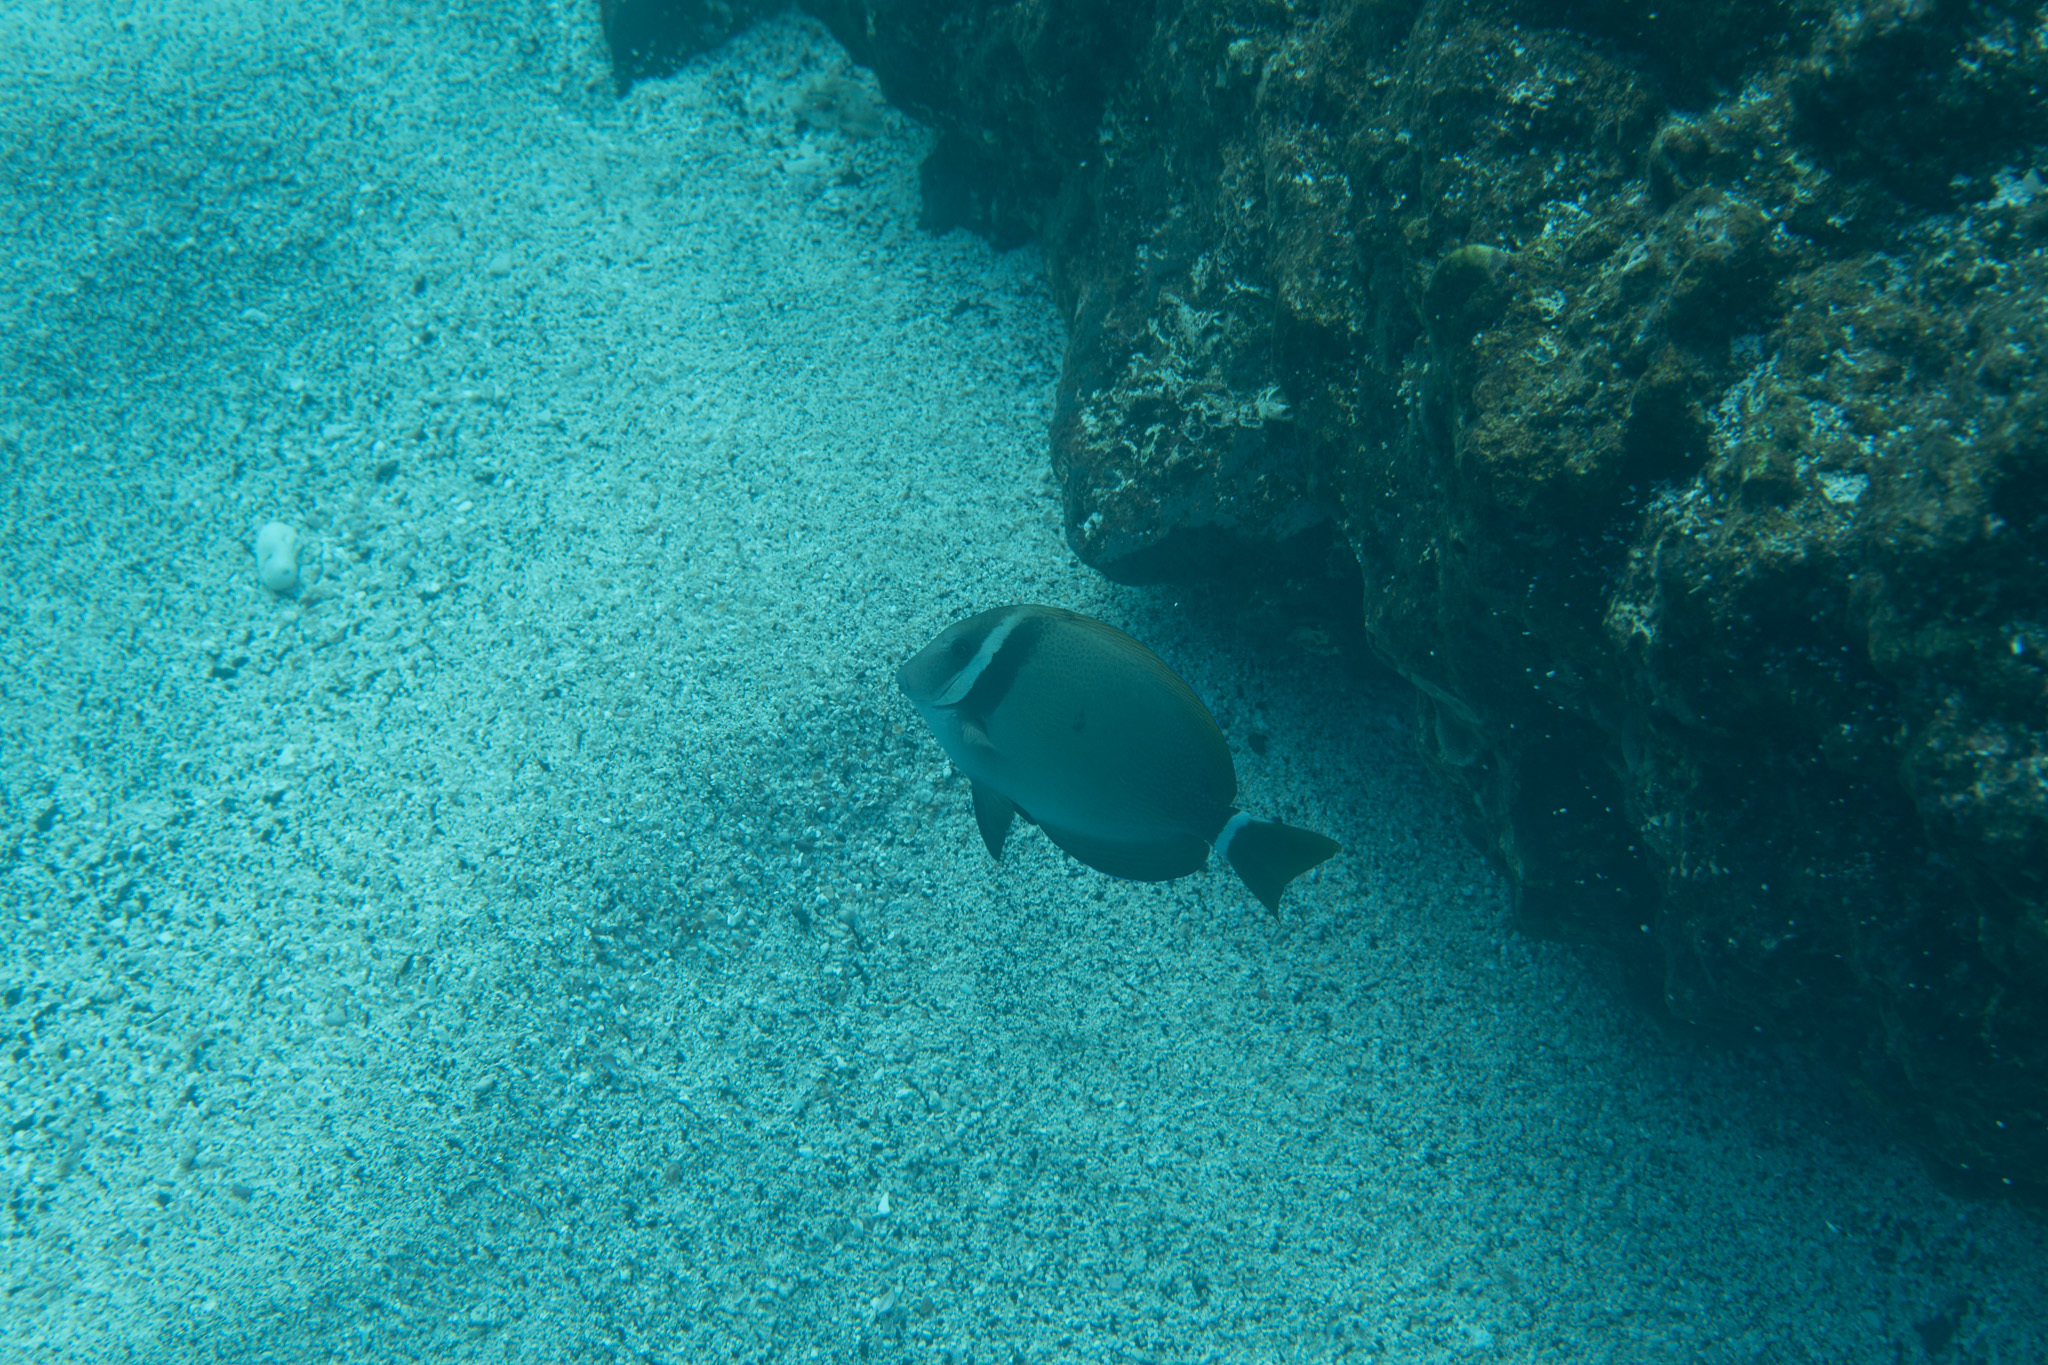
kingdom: Animalia
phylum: Chordata
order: Perciformes
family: Acanthuridae
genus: Acanthurus
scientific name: Acanthurus leucopareius
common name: Head-band surgeonfish
